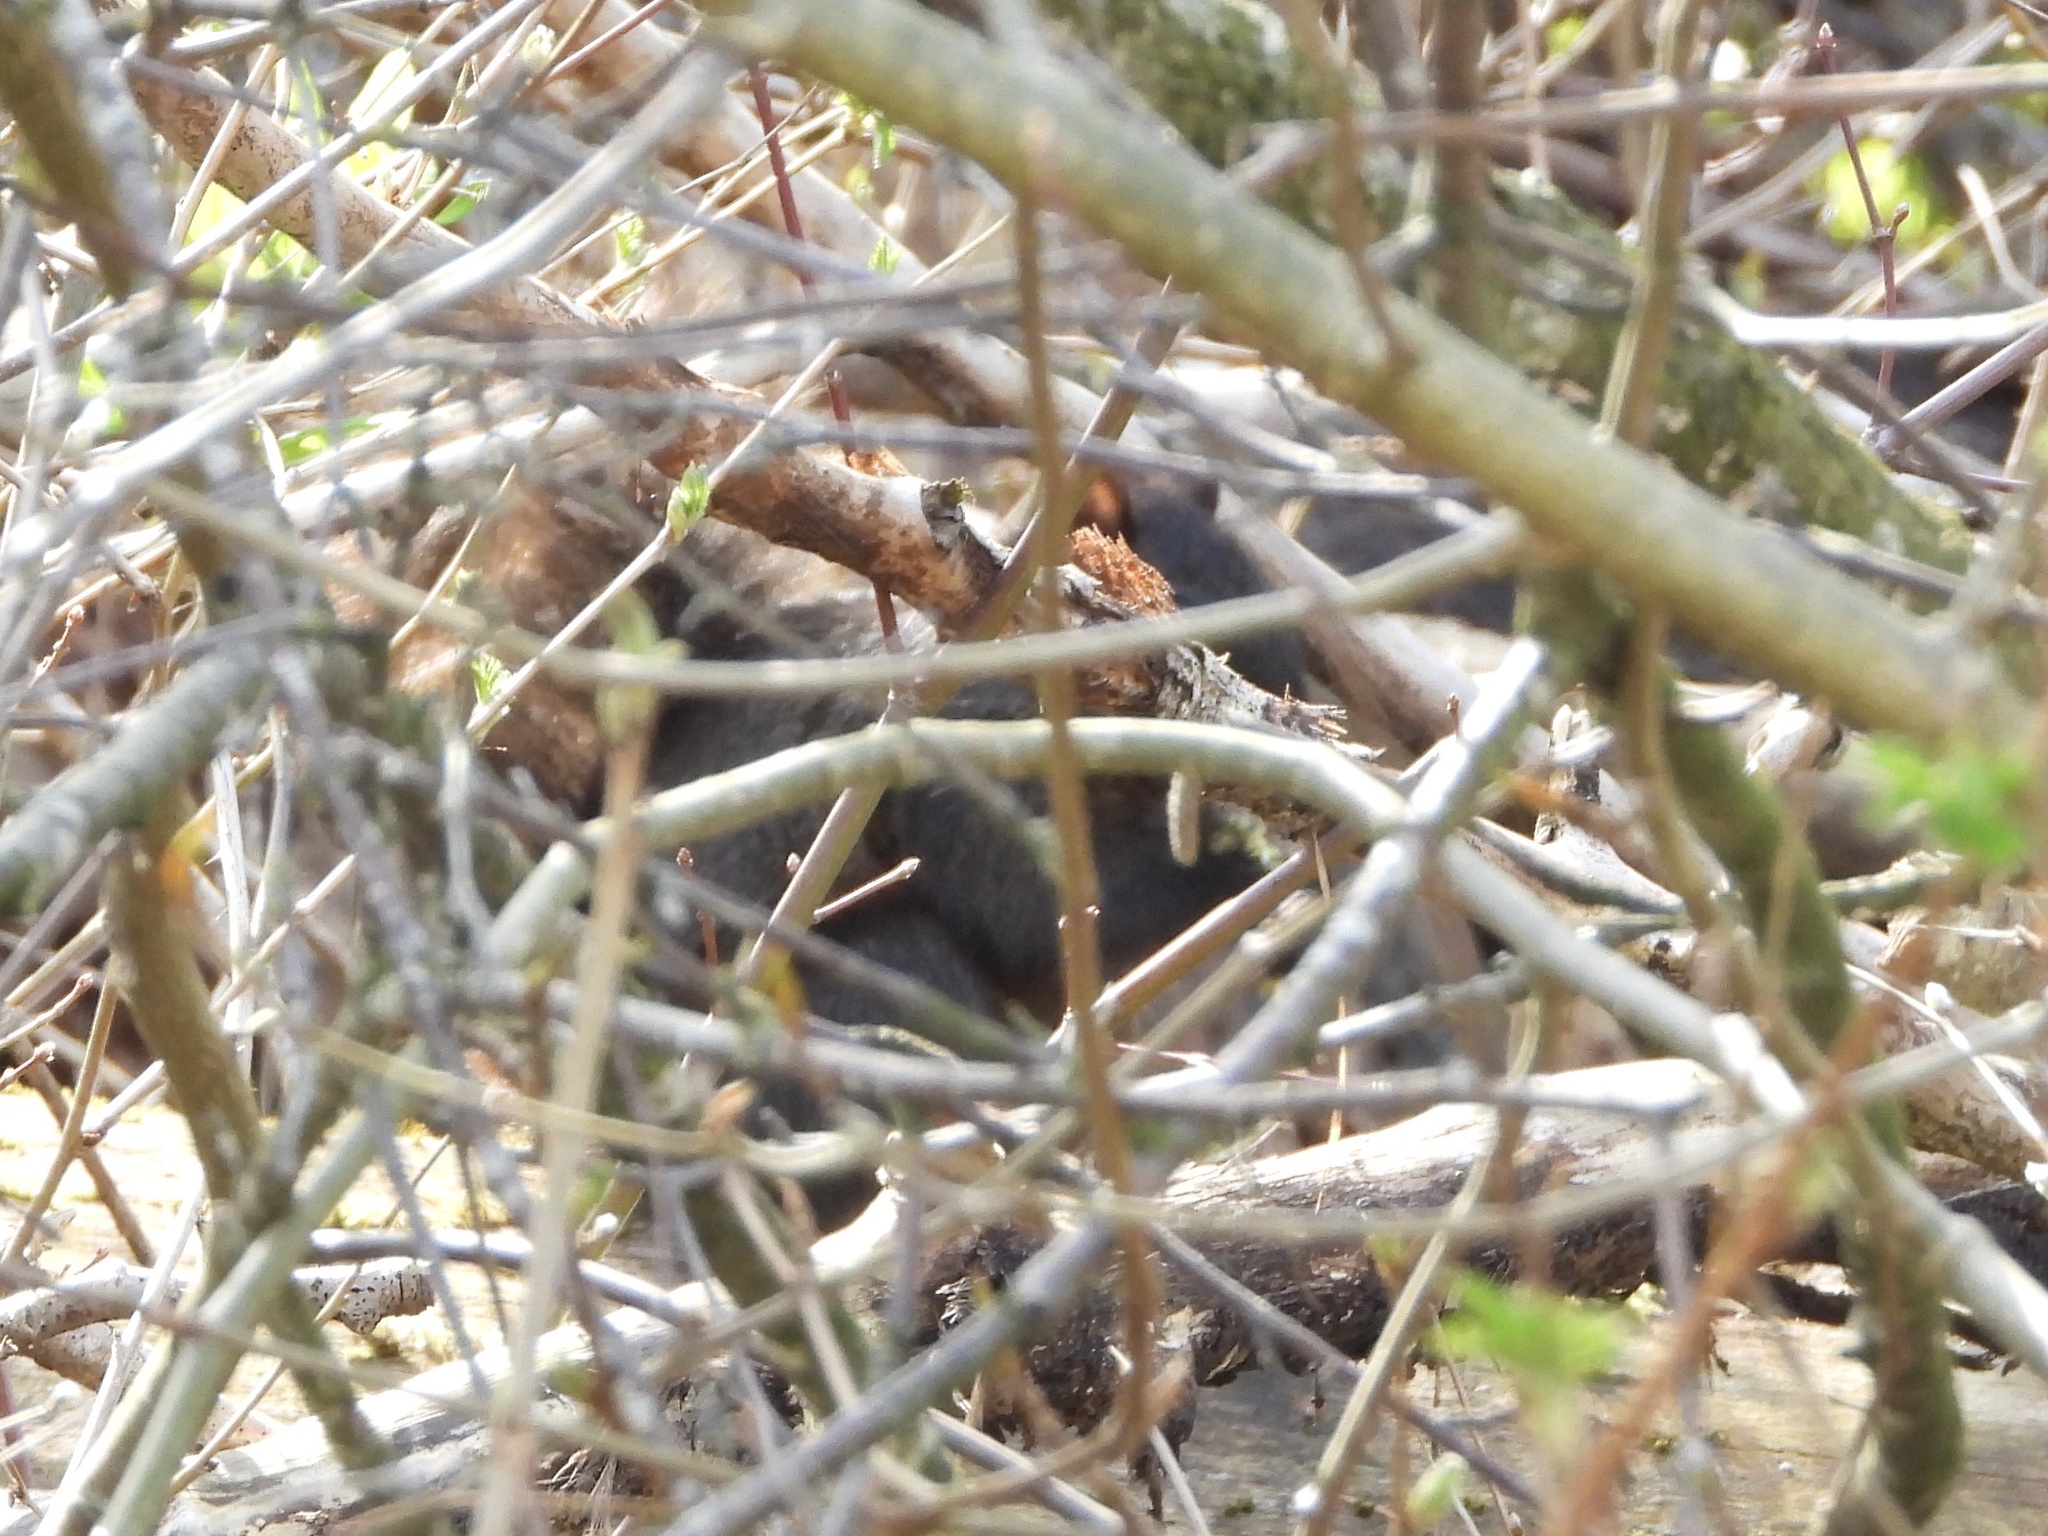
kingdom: Animalia
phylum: Chordata
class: Mammalia
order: Rodentia
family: Sciuridae
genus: Sciurus
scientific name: Sciurus carolinensis
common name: Eastern gray squirrel
